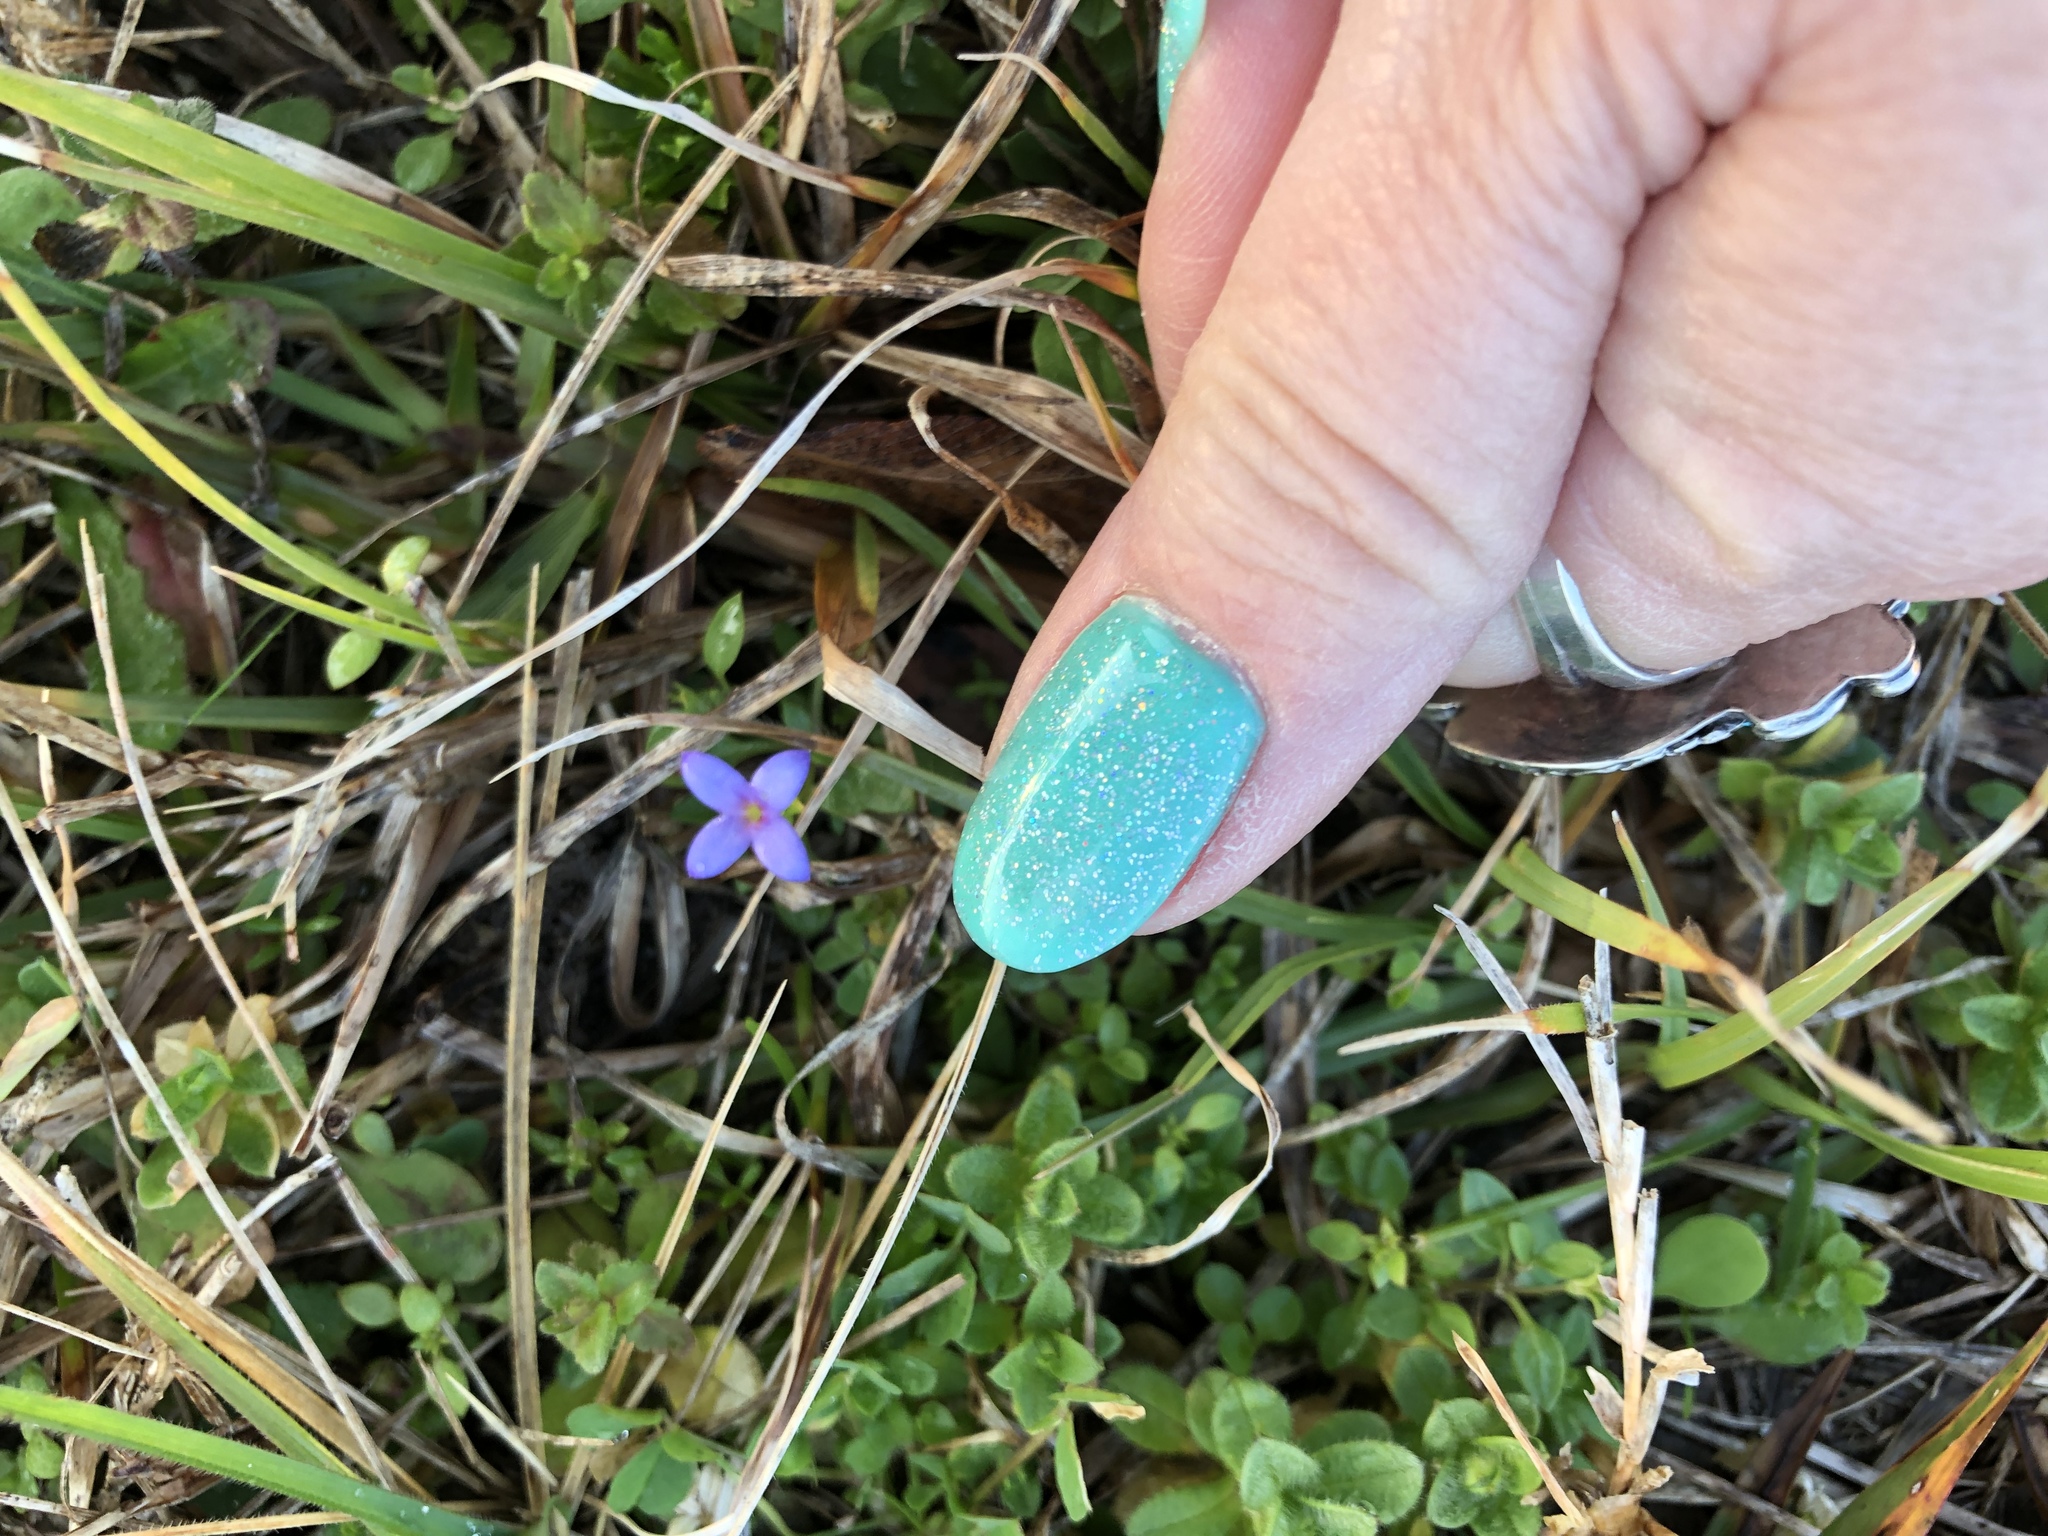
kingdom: Plantae
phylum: Tracheophyta
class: Magnoliopsida
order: Gentianales
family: Rubiaceae
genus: Houstonia
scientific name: Houstonia pusilla
